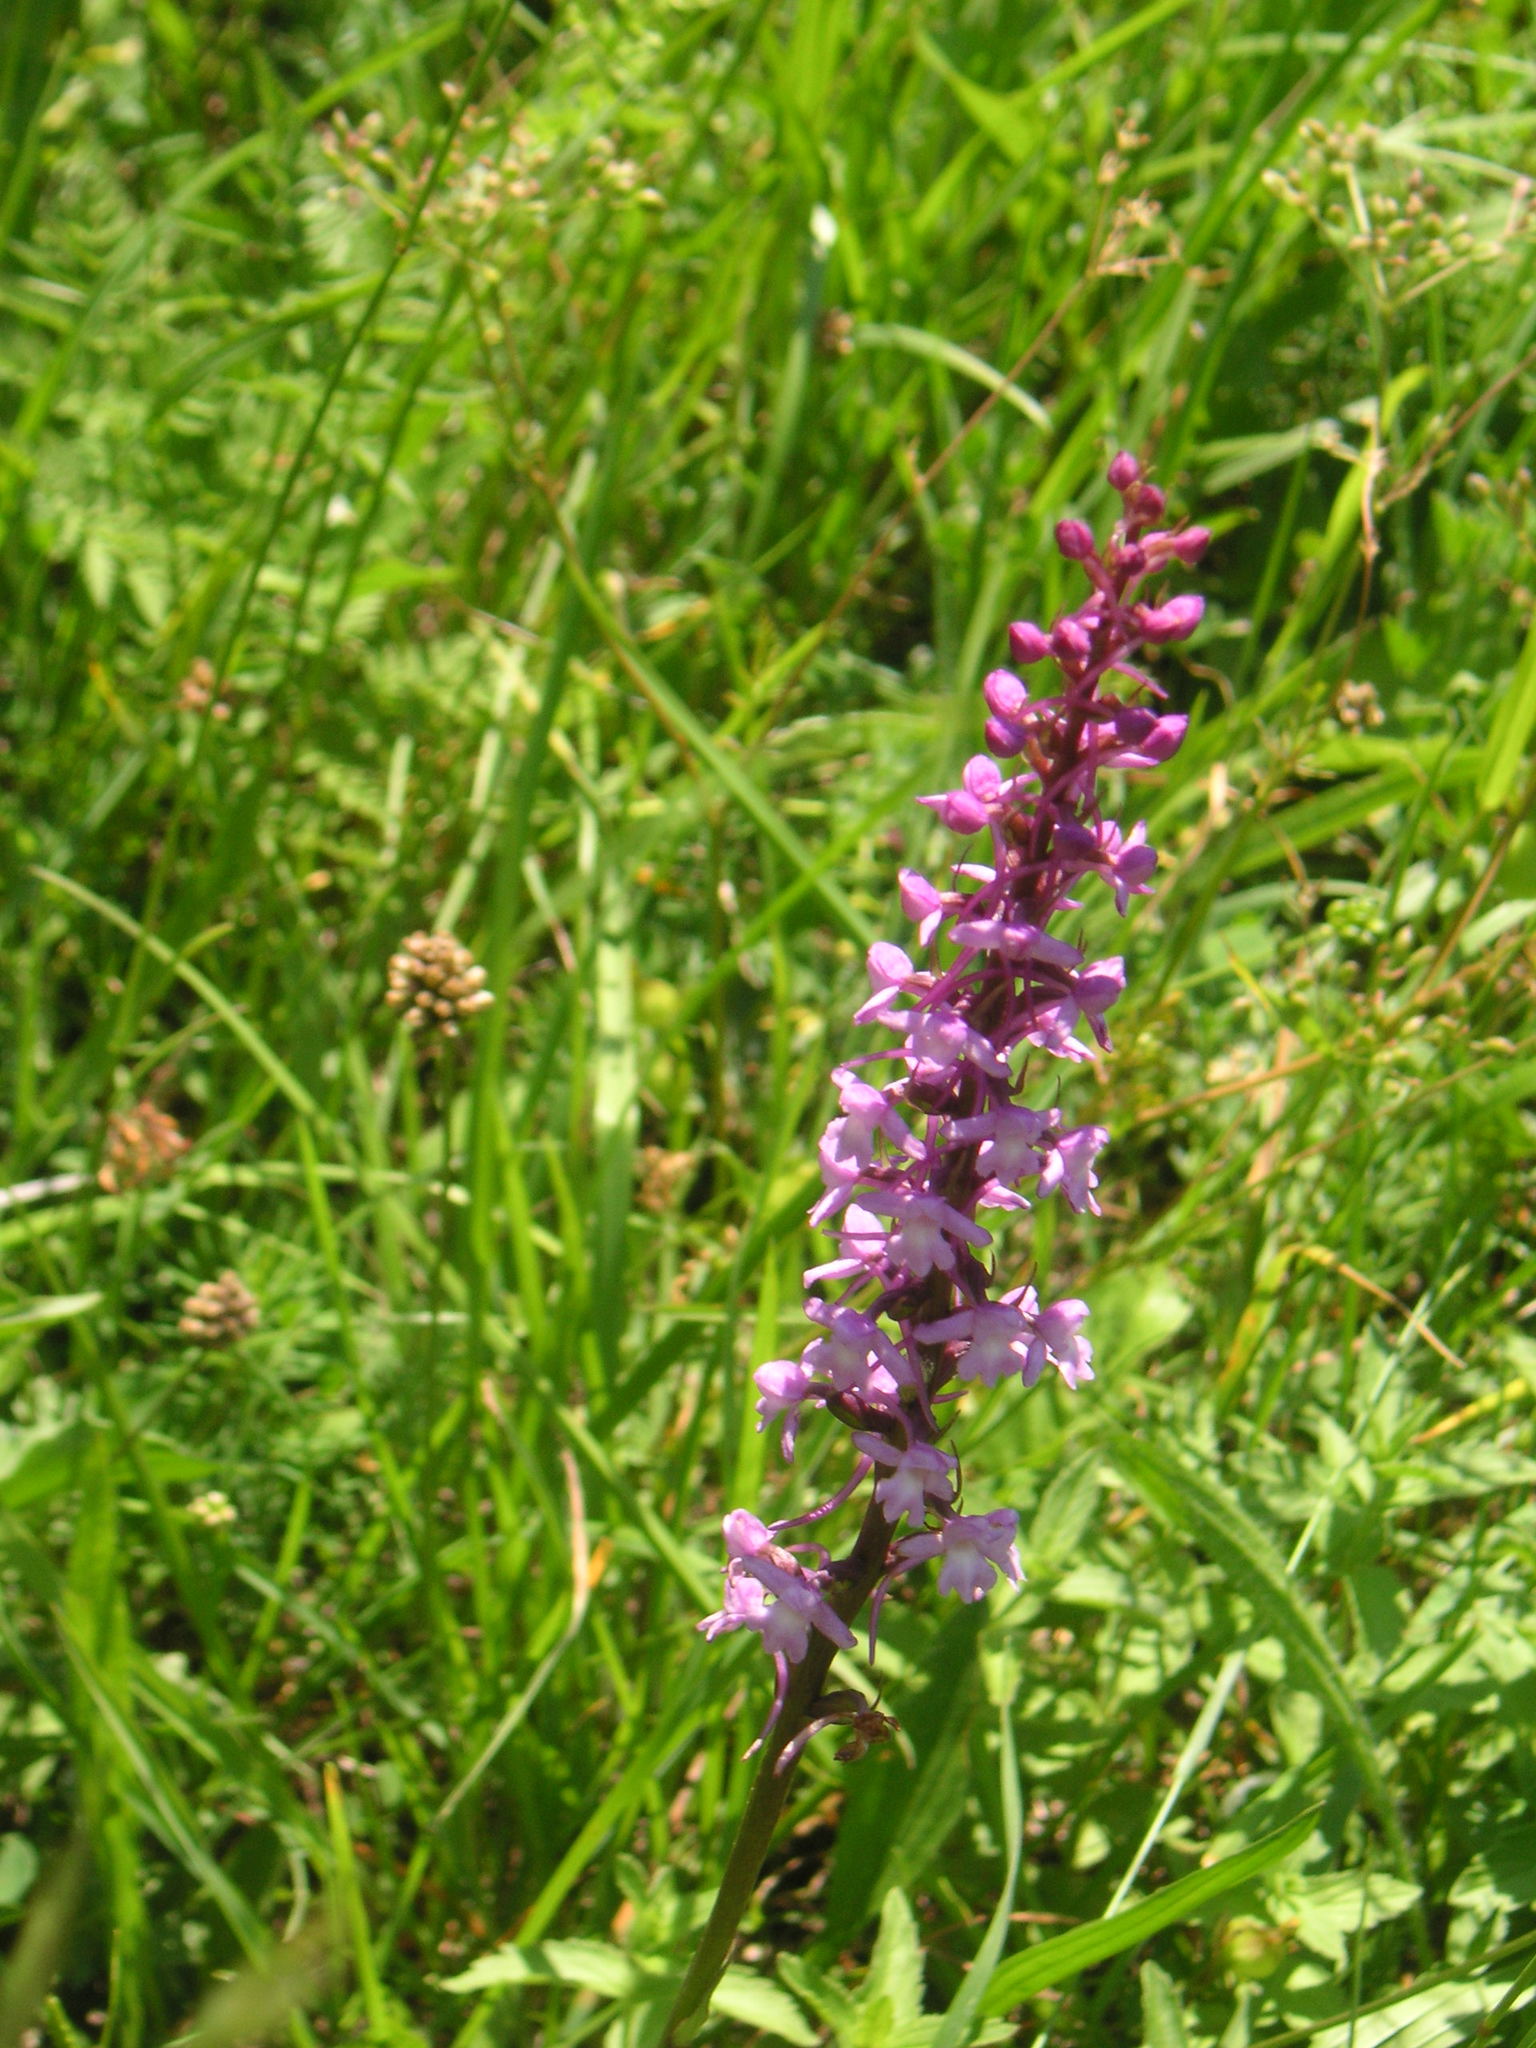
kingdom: Plantae
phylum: Tracheophyta
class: Liliopsida
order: Asparagales
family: Orchidaceae
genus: Gymnadenia
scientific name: Gymnadenia conopsea
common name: Fragrant orchid
